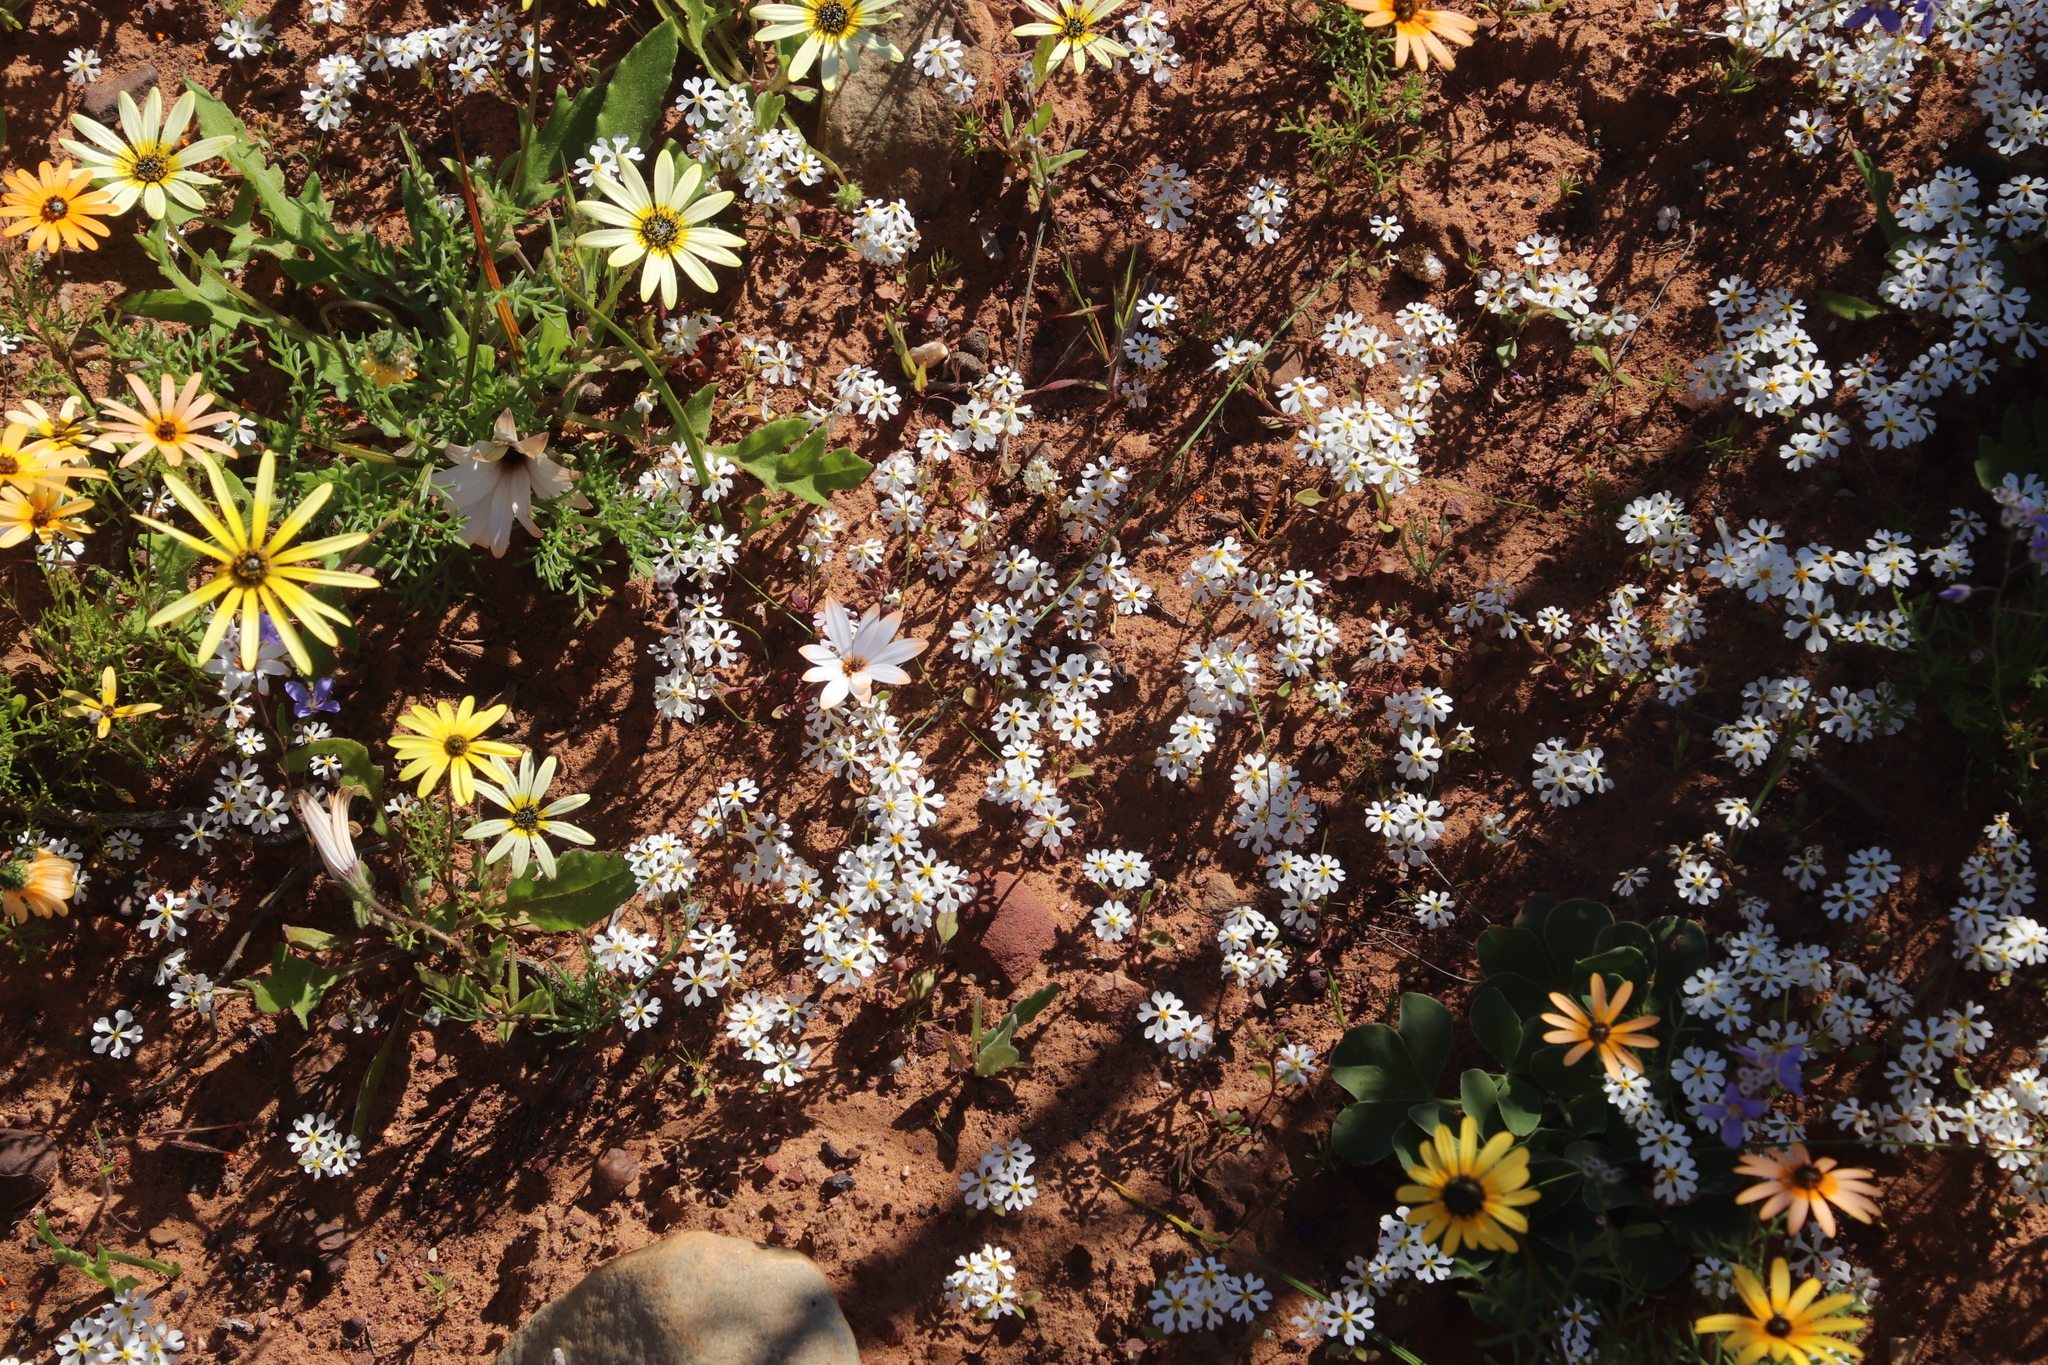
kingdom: Plantae
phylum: Tracheophyta
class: Magnoliopsida
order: Lamiales
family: Scrophulariaceae
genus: Zaluzianskya
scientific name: Zaluzianskya affinis
